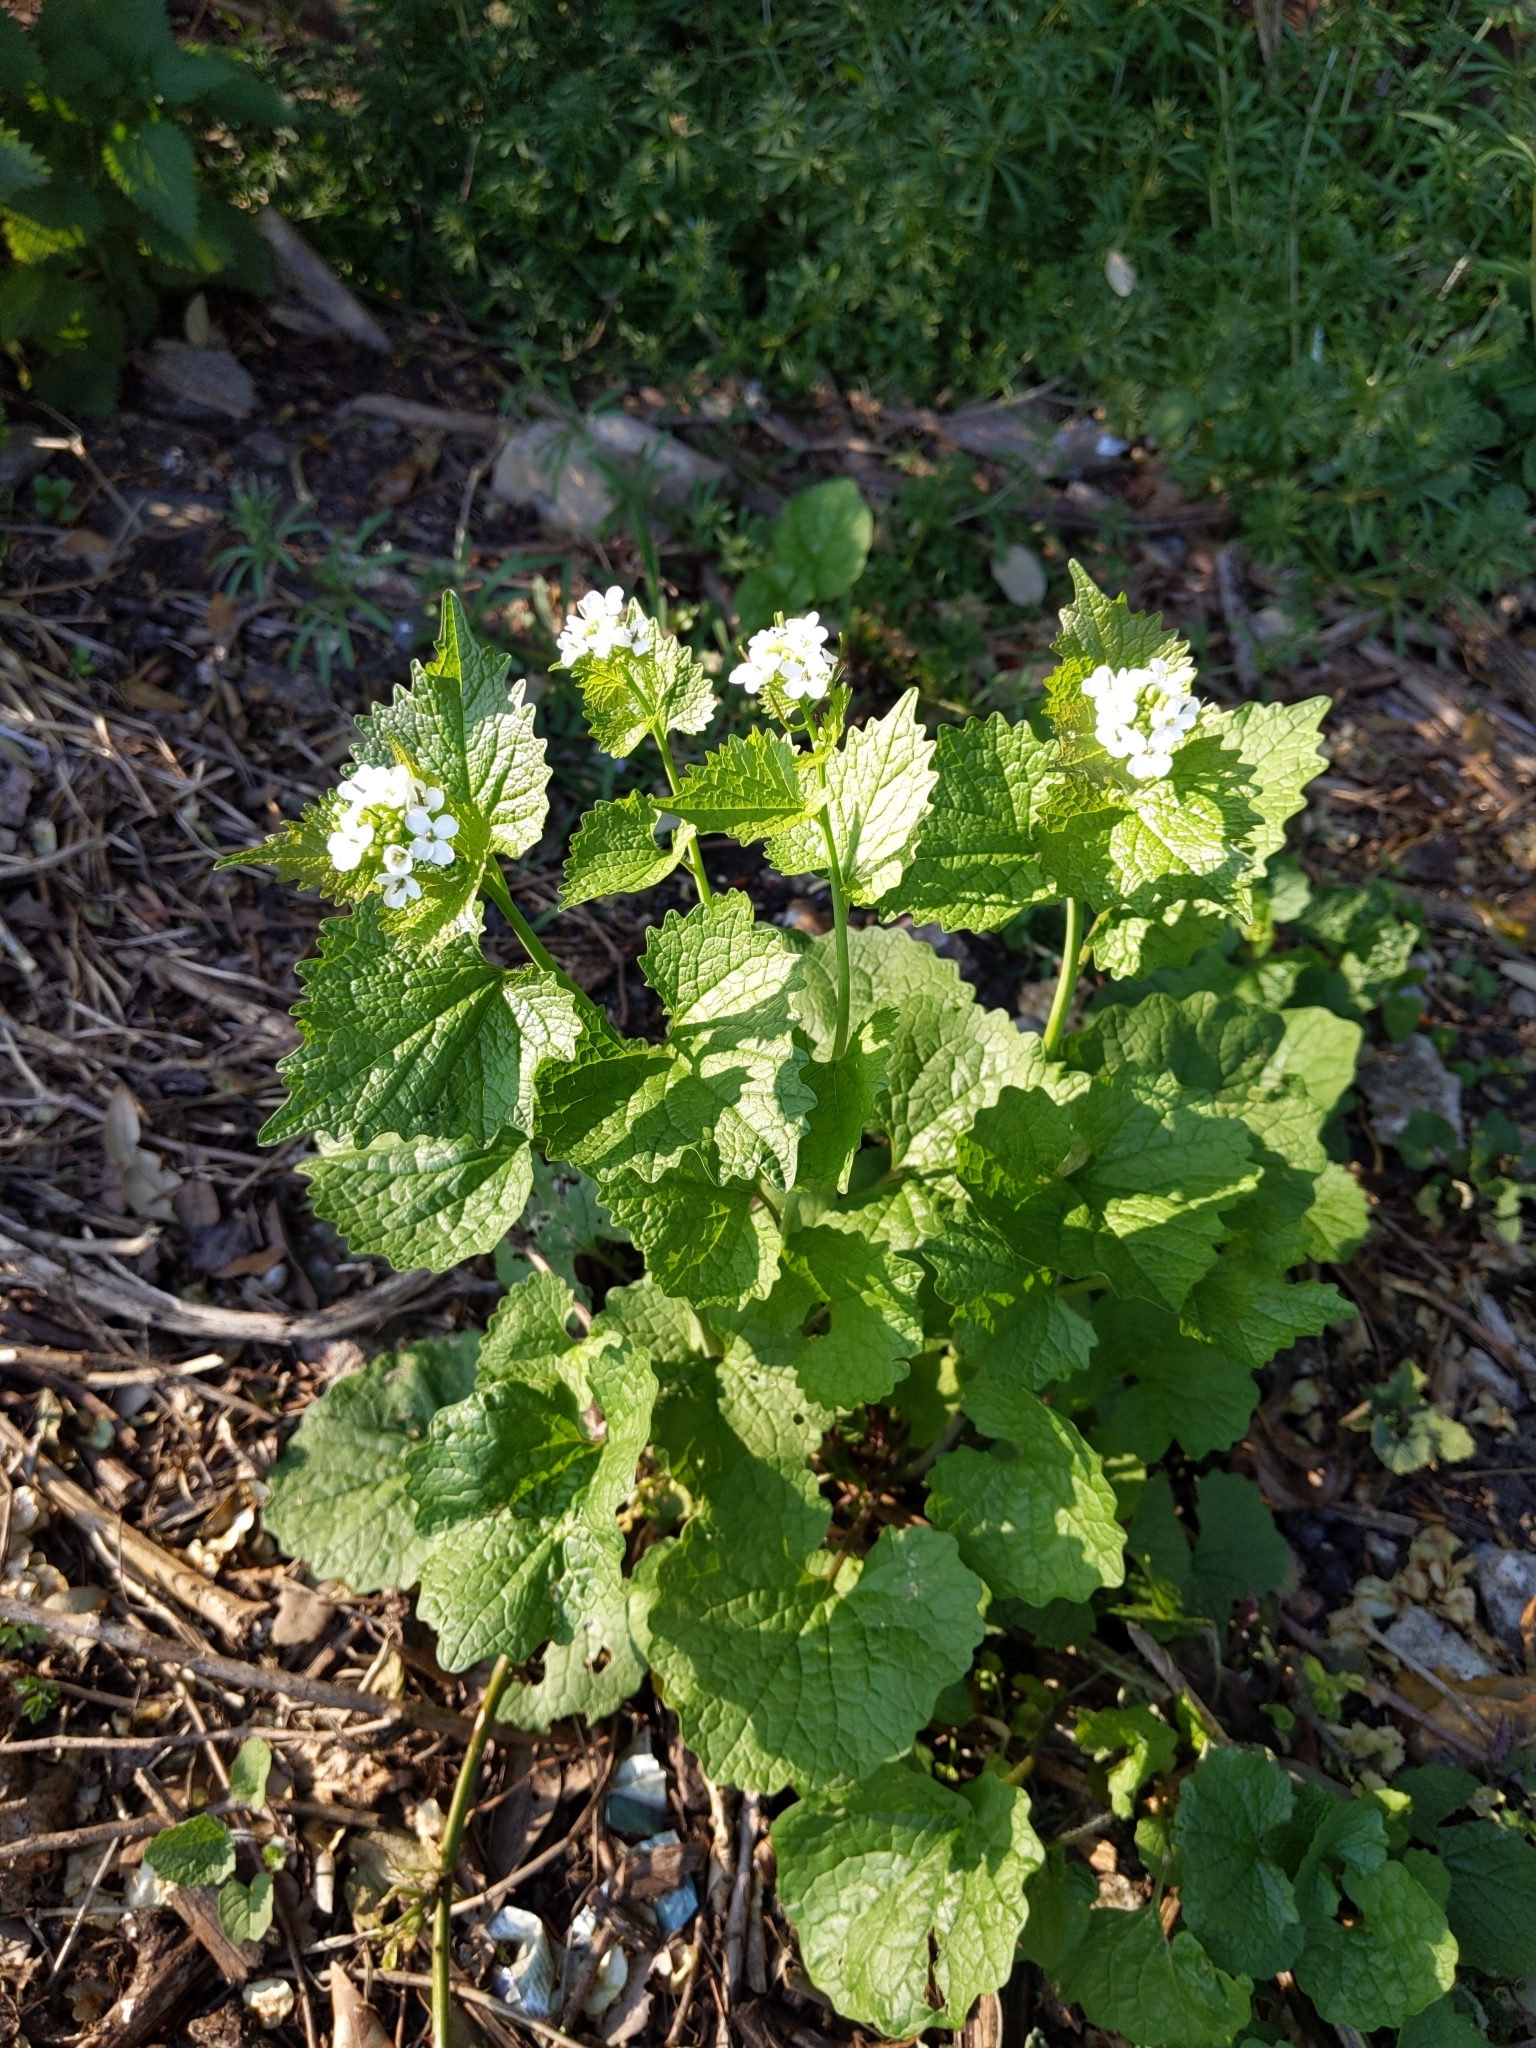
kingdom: Plantae
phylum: Tracheophyta
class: Magnoliopsida
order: Brassicales
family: Brassicaceae
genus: Alliaria
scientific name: Alliaria petiolata
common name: Garlic mustard
